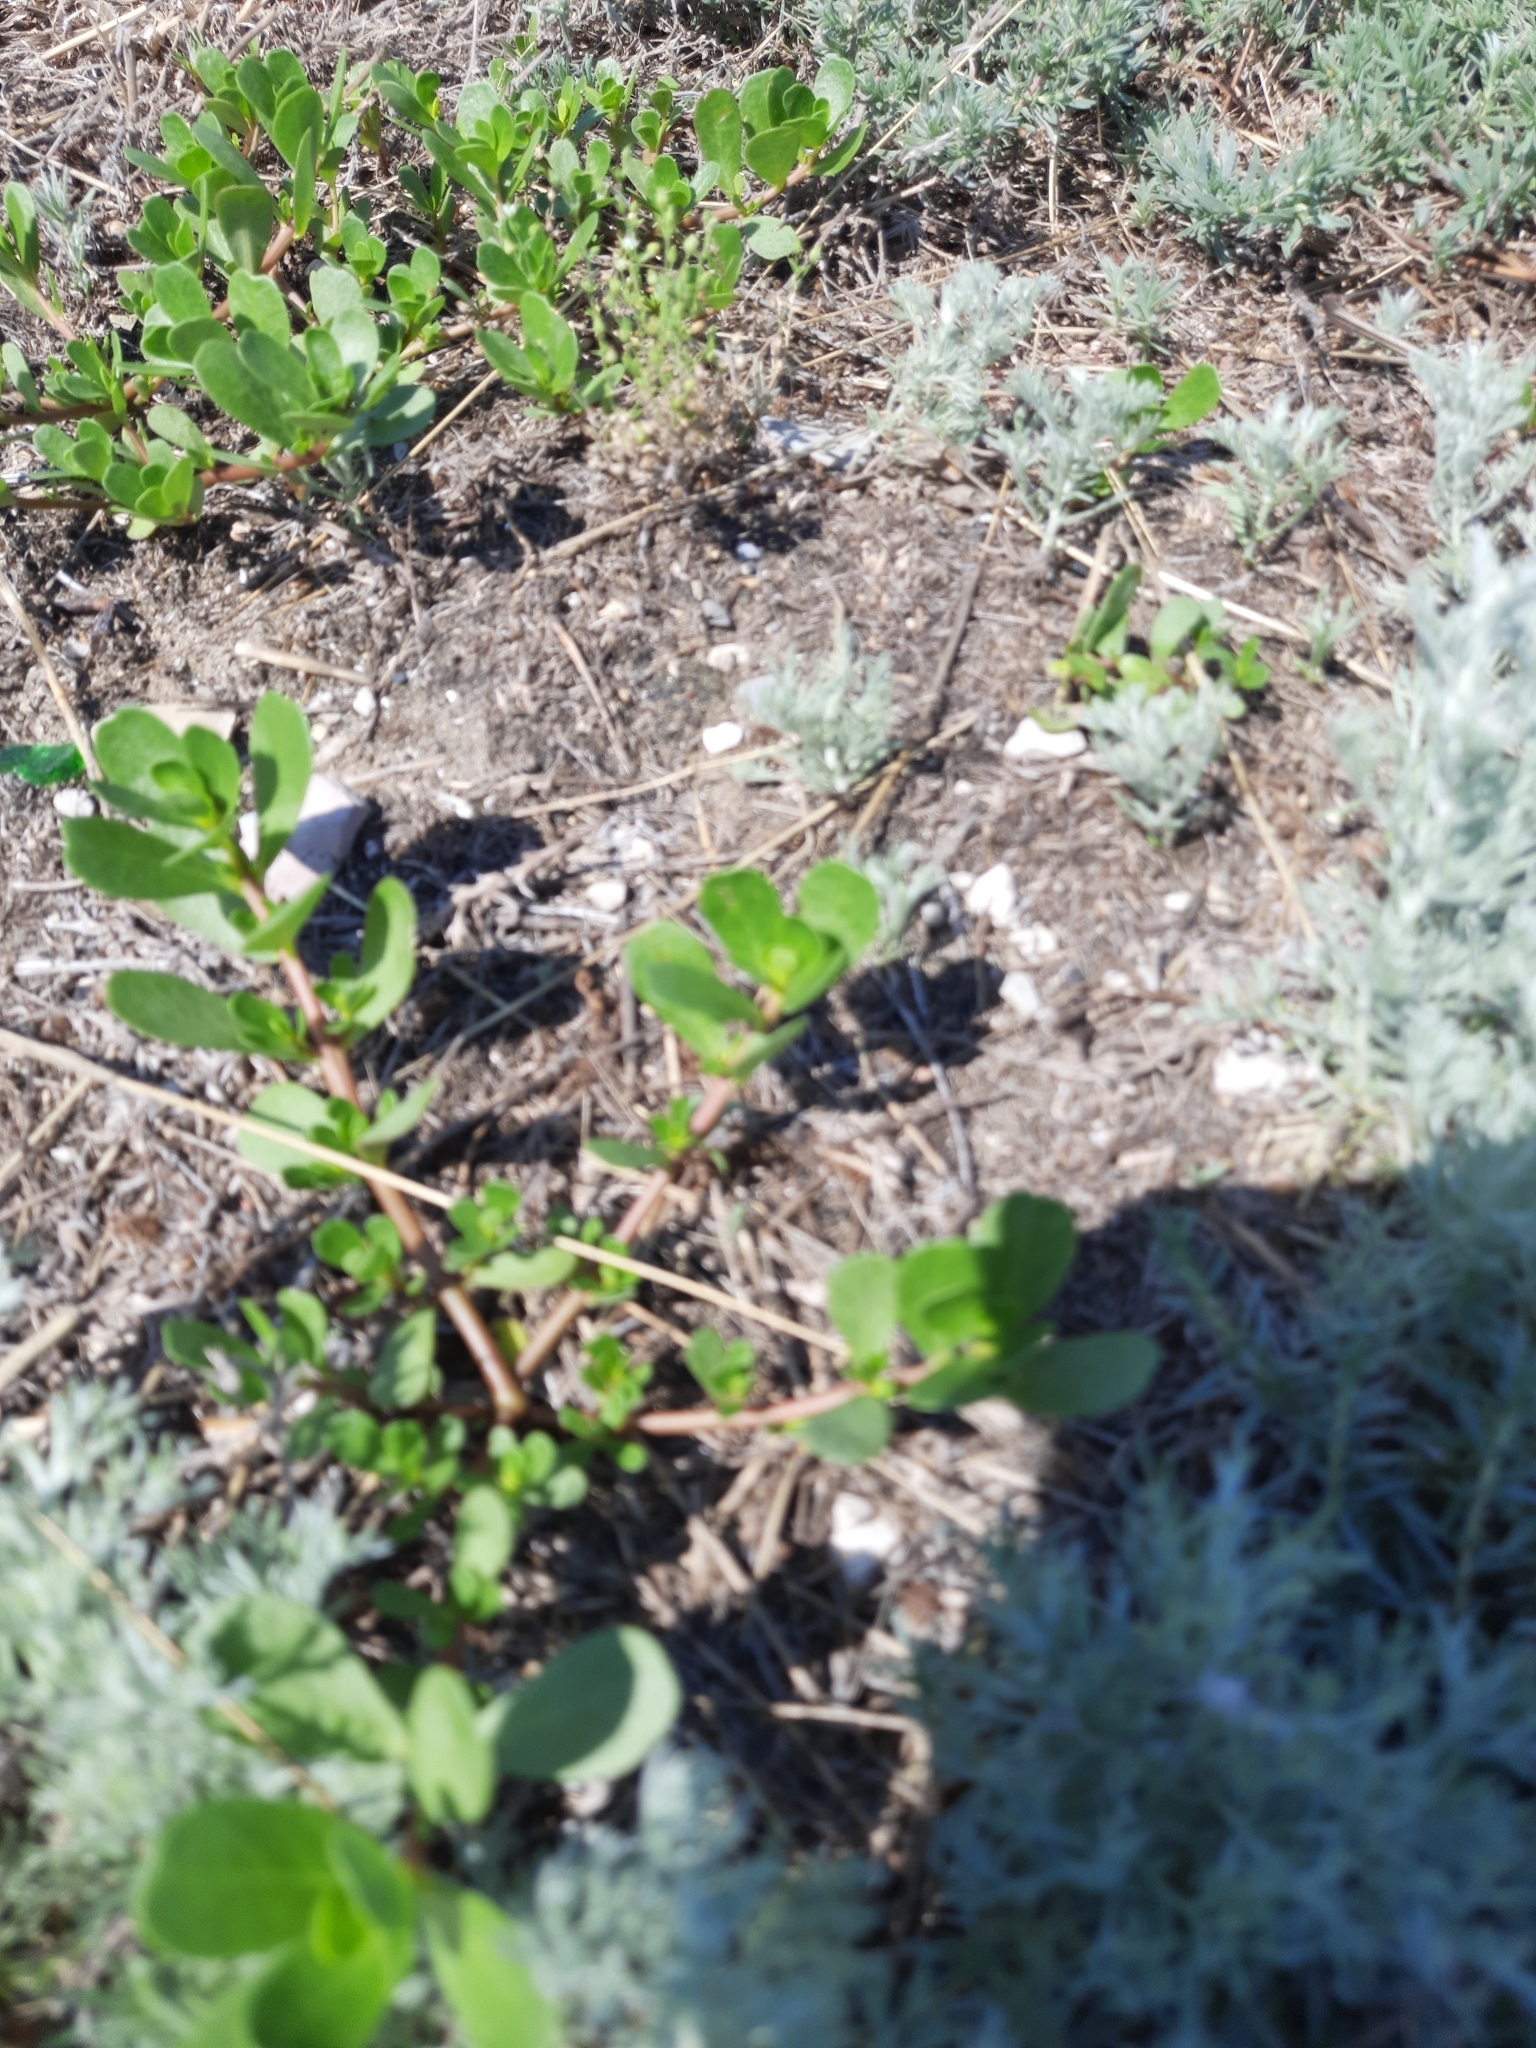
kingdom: Plantae
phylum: Tracheophyta
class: Magnoliopsida
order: Caryophyllales
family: Portulacaceae
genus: Portulaca
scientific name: Portulaca oleracea
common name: Common purslane
